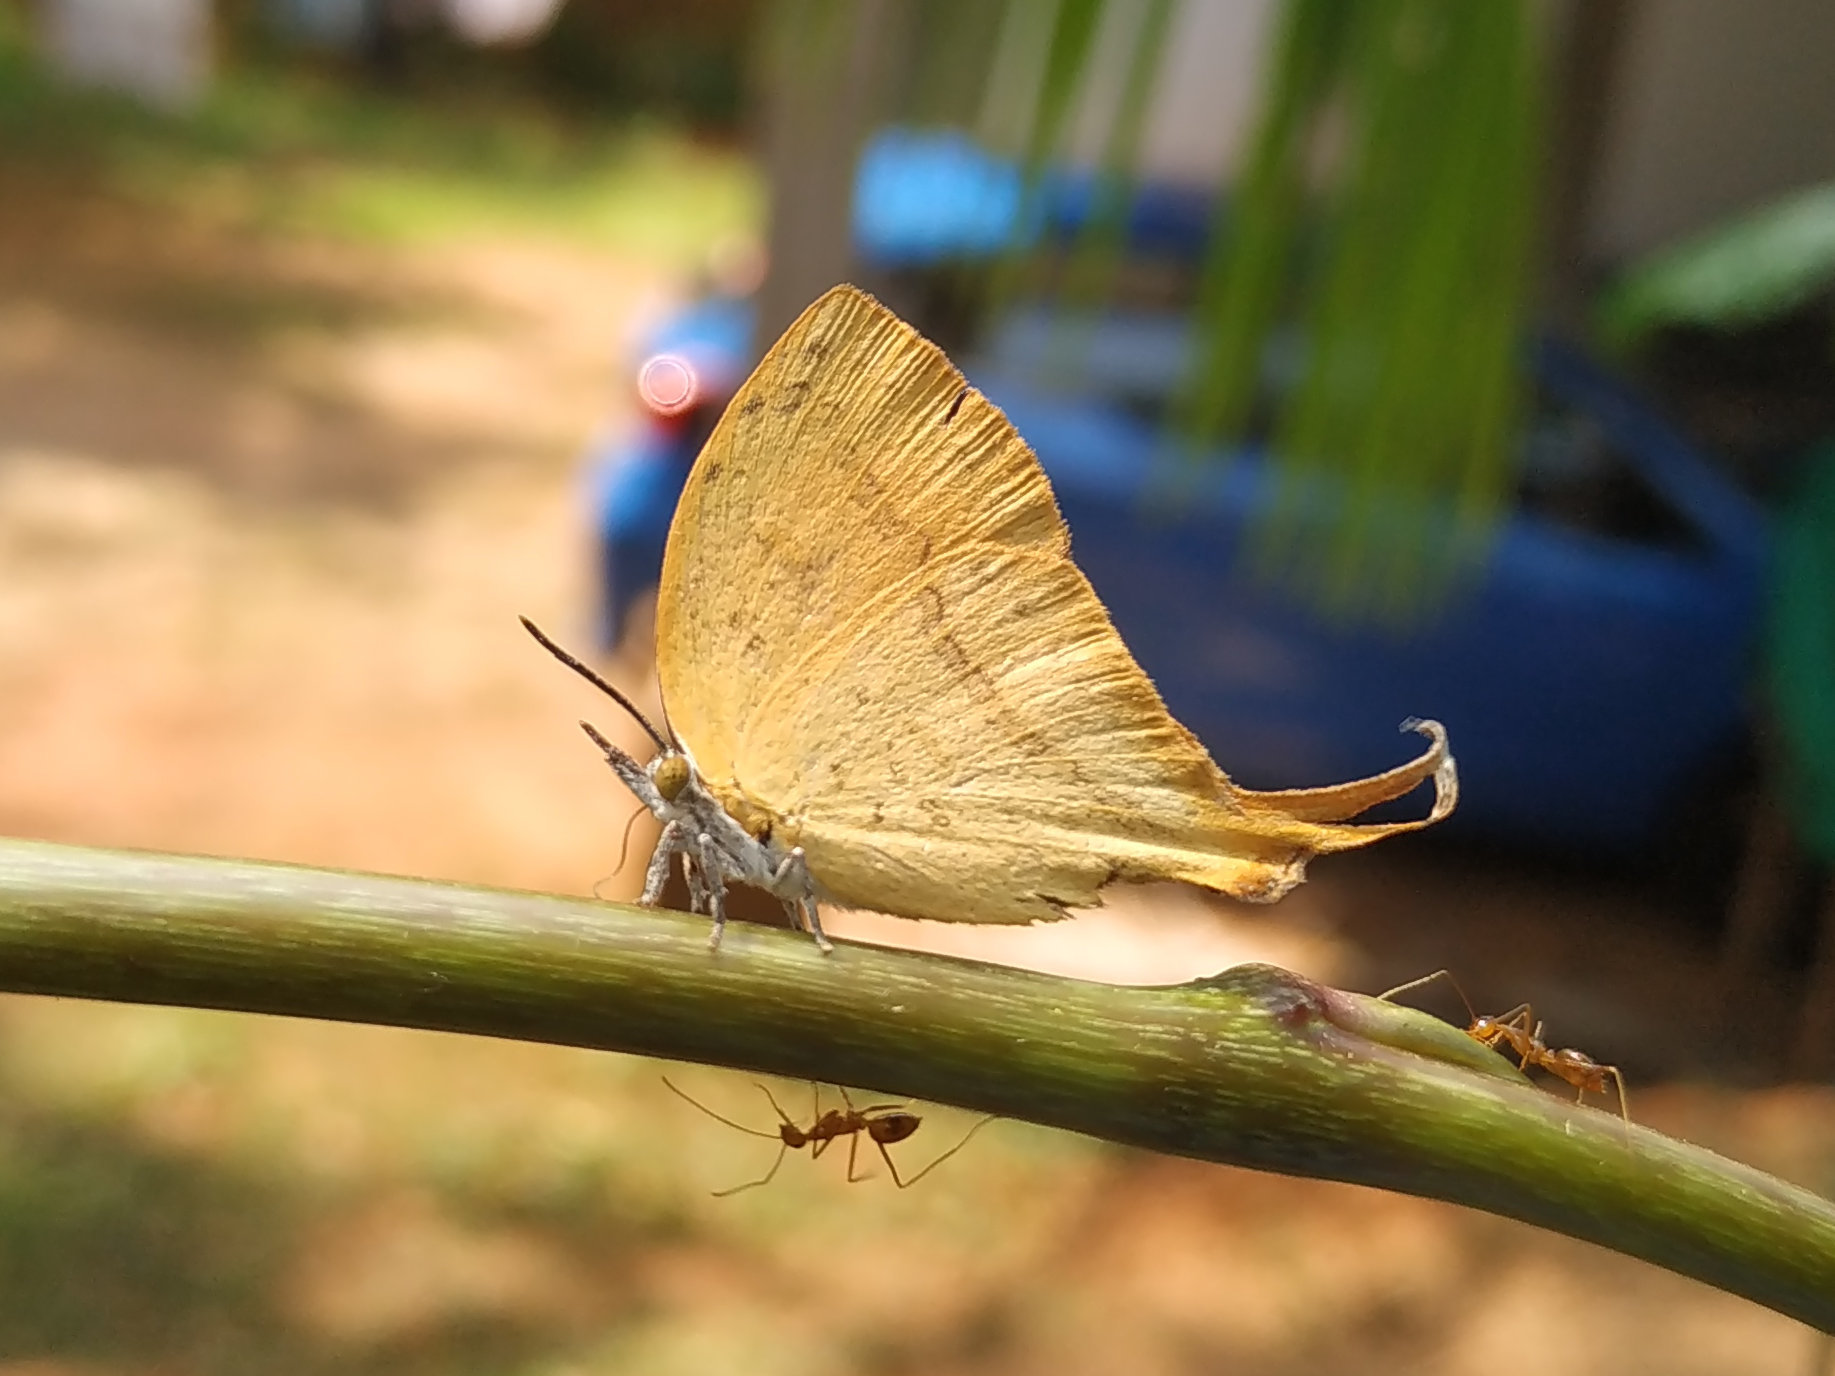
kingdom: Animalia
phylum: Arthropoda
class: Insecta
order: Lepidoptera
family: Lycaenidae
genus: Loxura
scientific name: Loxura atymnus
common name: Common yamfly
